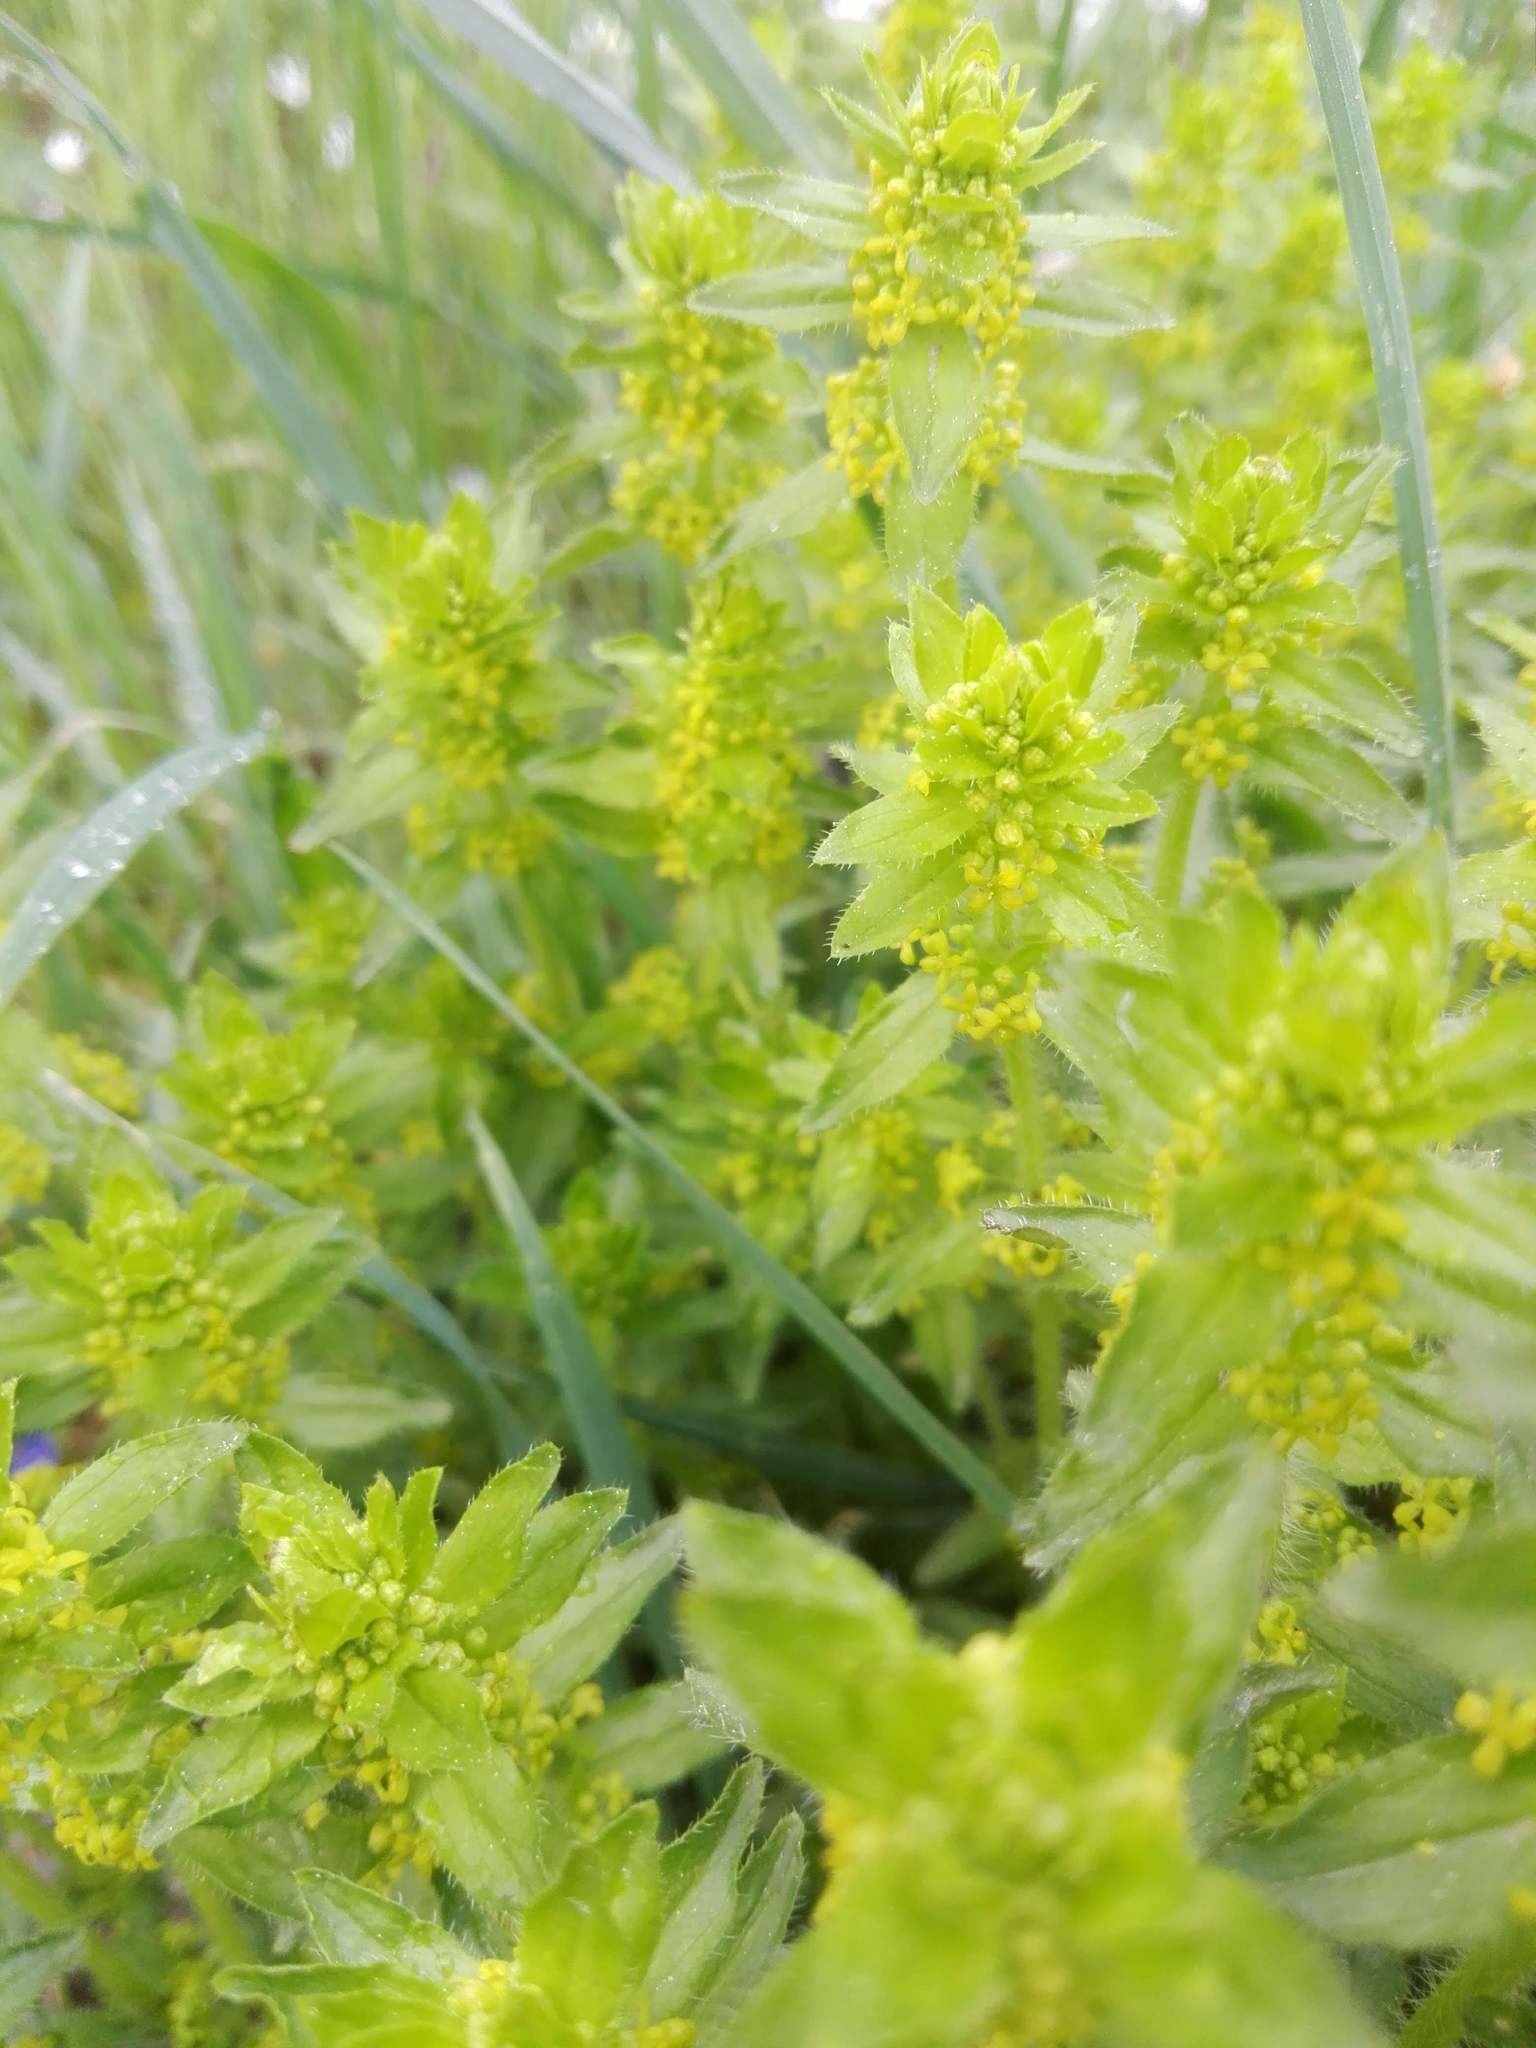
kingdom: Plantae
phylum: Tracheophyta
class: Magnoliopsida
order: Gentianales
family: Rubiaceae
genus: Cruciata
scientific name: Cruciata laevipes
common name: Crosswort
